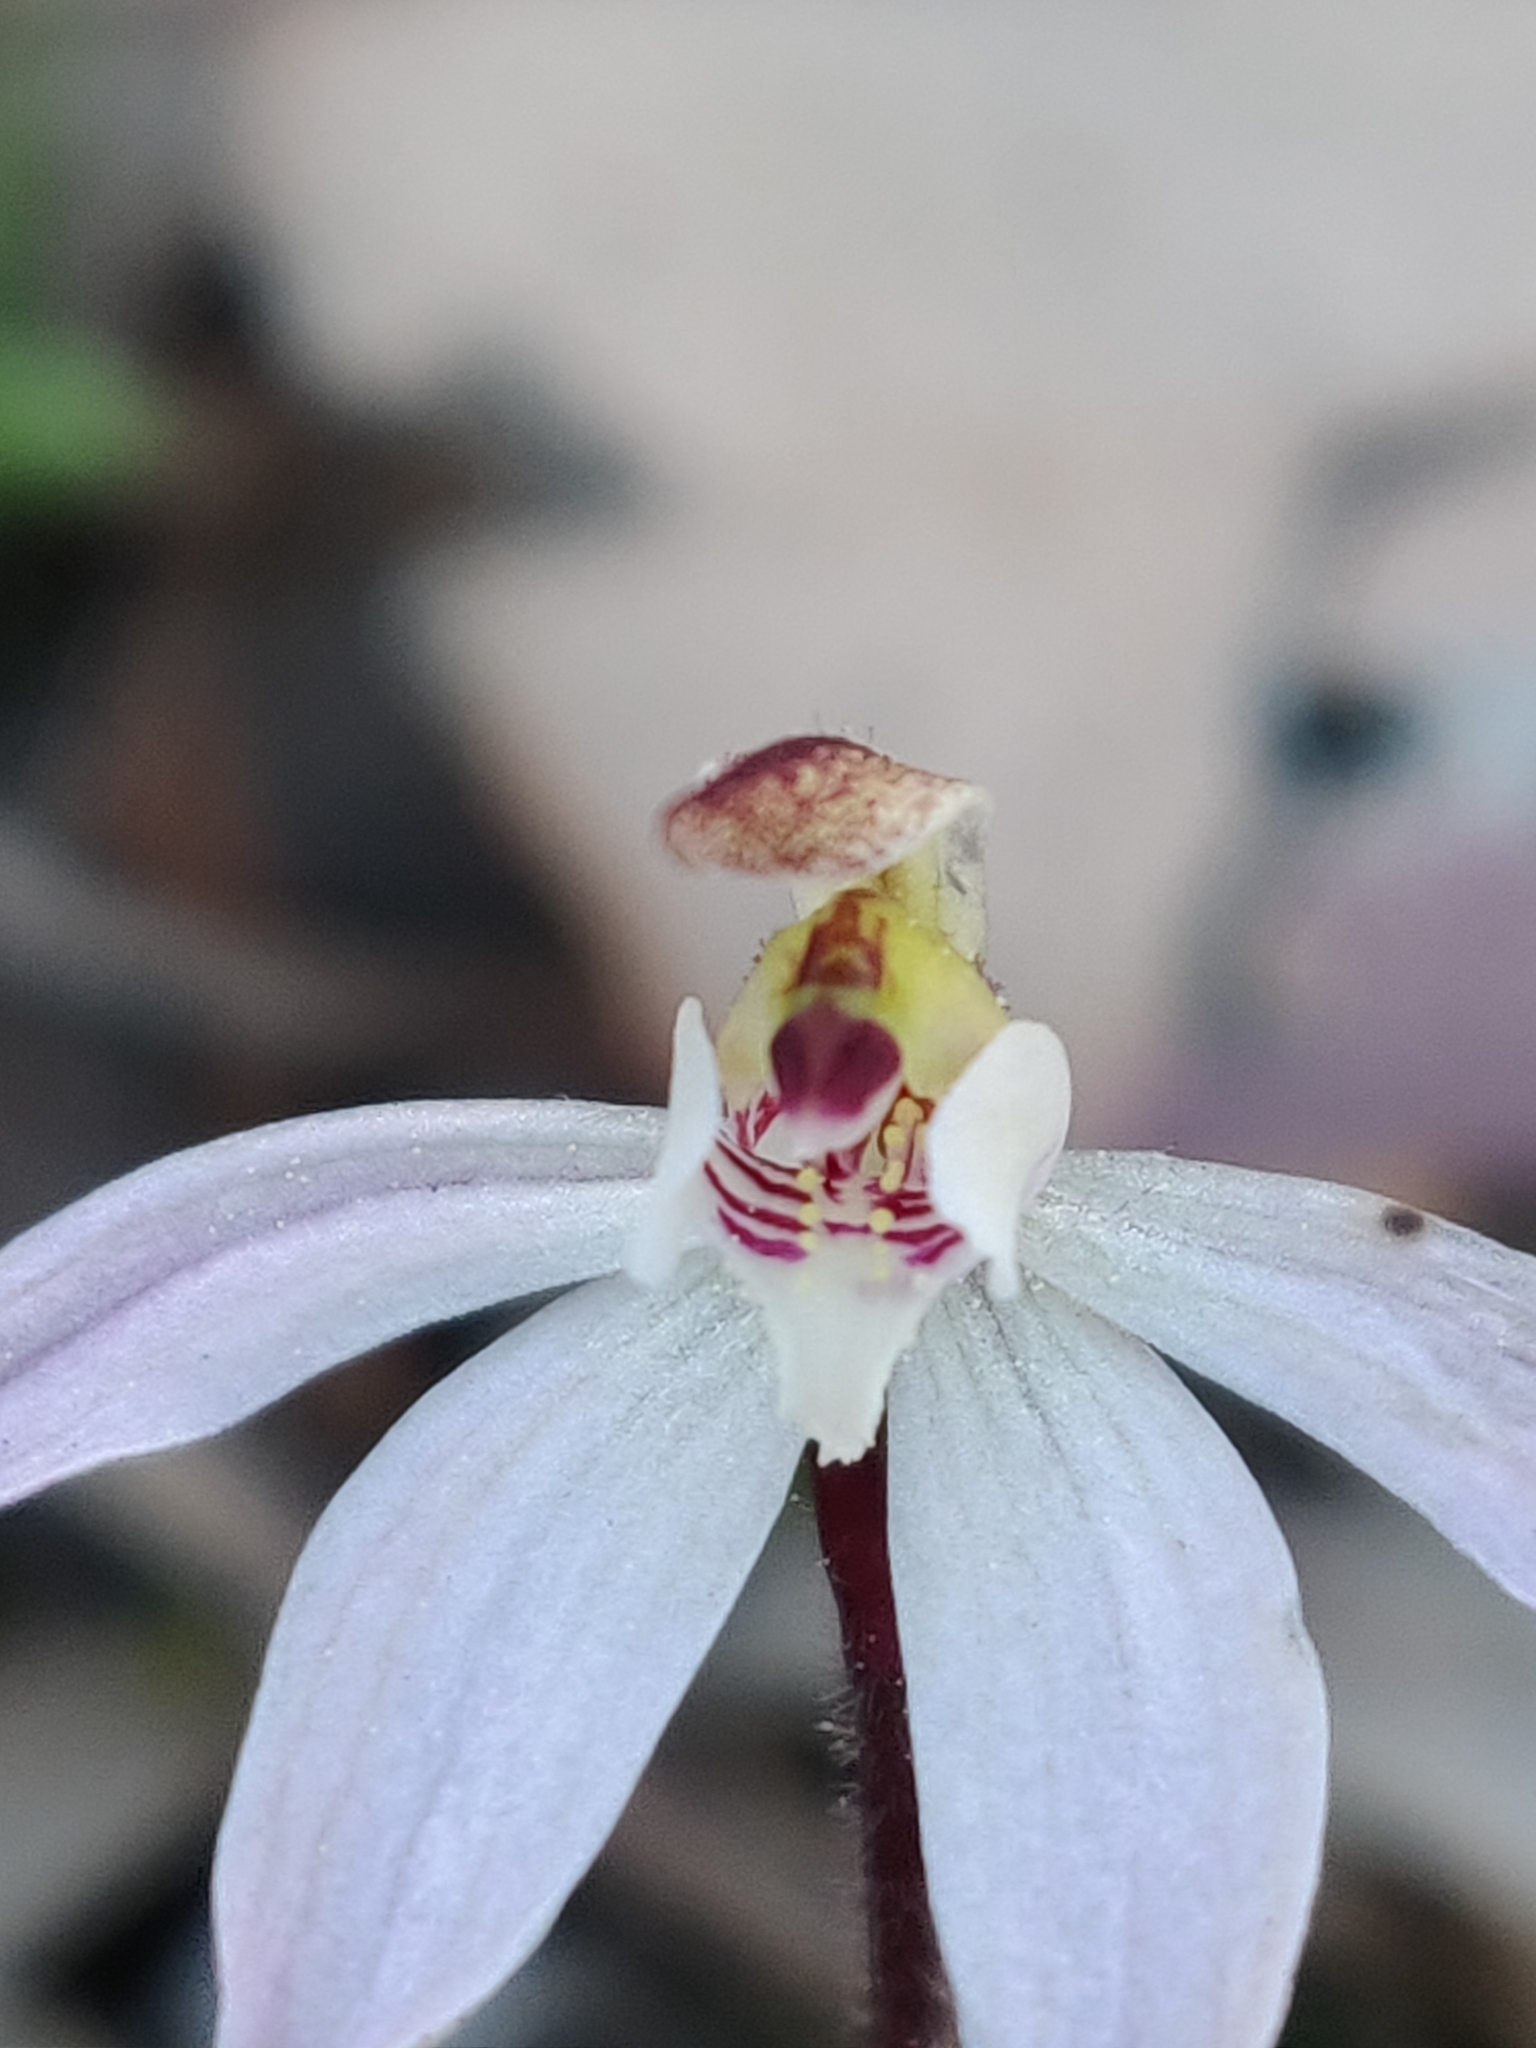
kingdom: Plantae
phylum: Tracheophyta
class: Liliopsida
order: Asparagales
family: Orchidaceae
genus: Caladenia
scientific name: Caladenia fuscata
